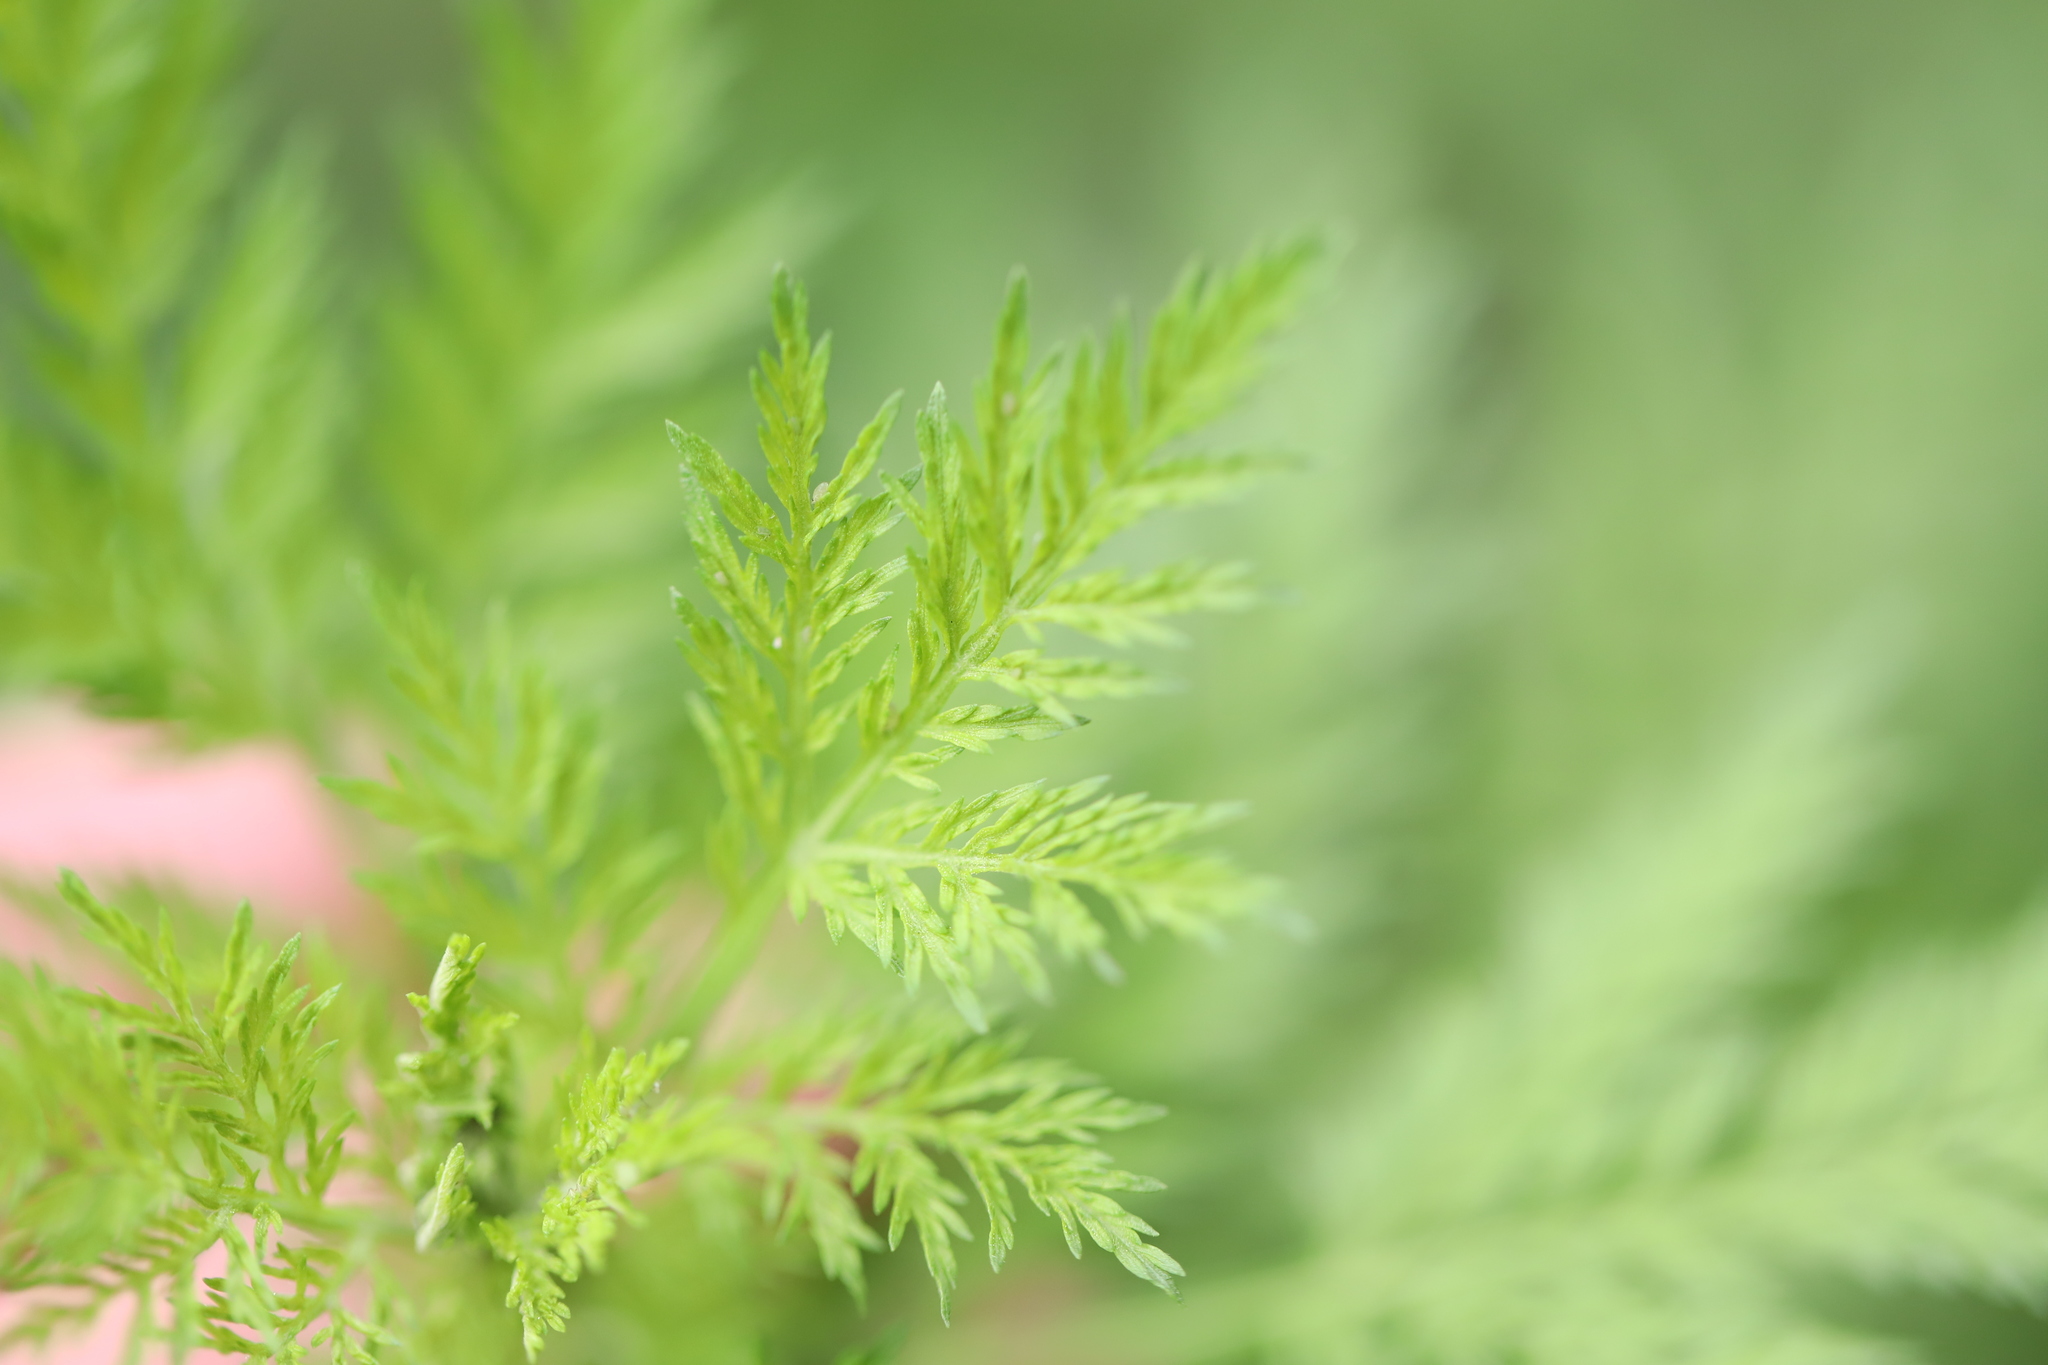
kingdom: Plantae
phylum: Tracheophyta
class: Magnoliopsida
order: Asterales
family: Asteraceae
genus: Artemisia
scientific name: Artemisia annua
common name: Sweet sagewort
